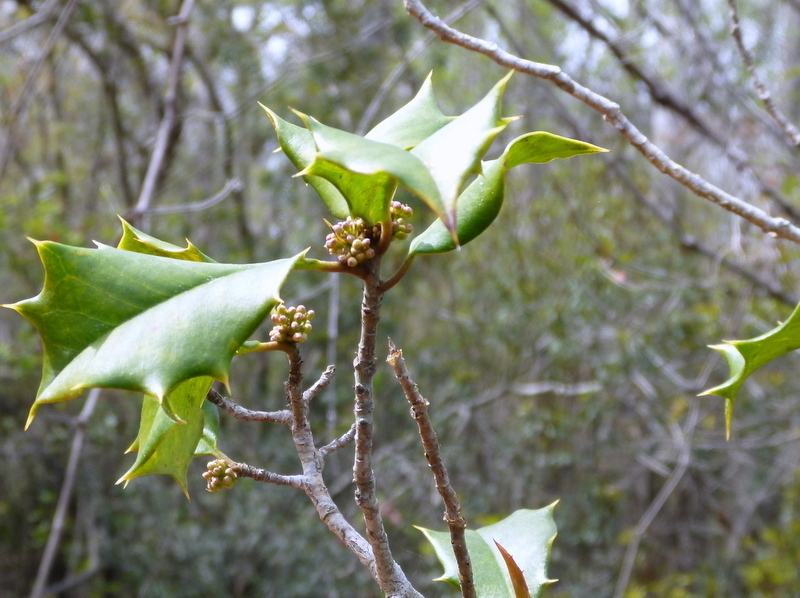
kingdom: Plantae
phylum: Tracheophyta
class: Magnoliopsida
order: Aquifoliales
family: Aquifoliaceae
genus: Ilex
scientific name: Ilex opaca
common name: American holly
